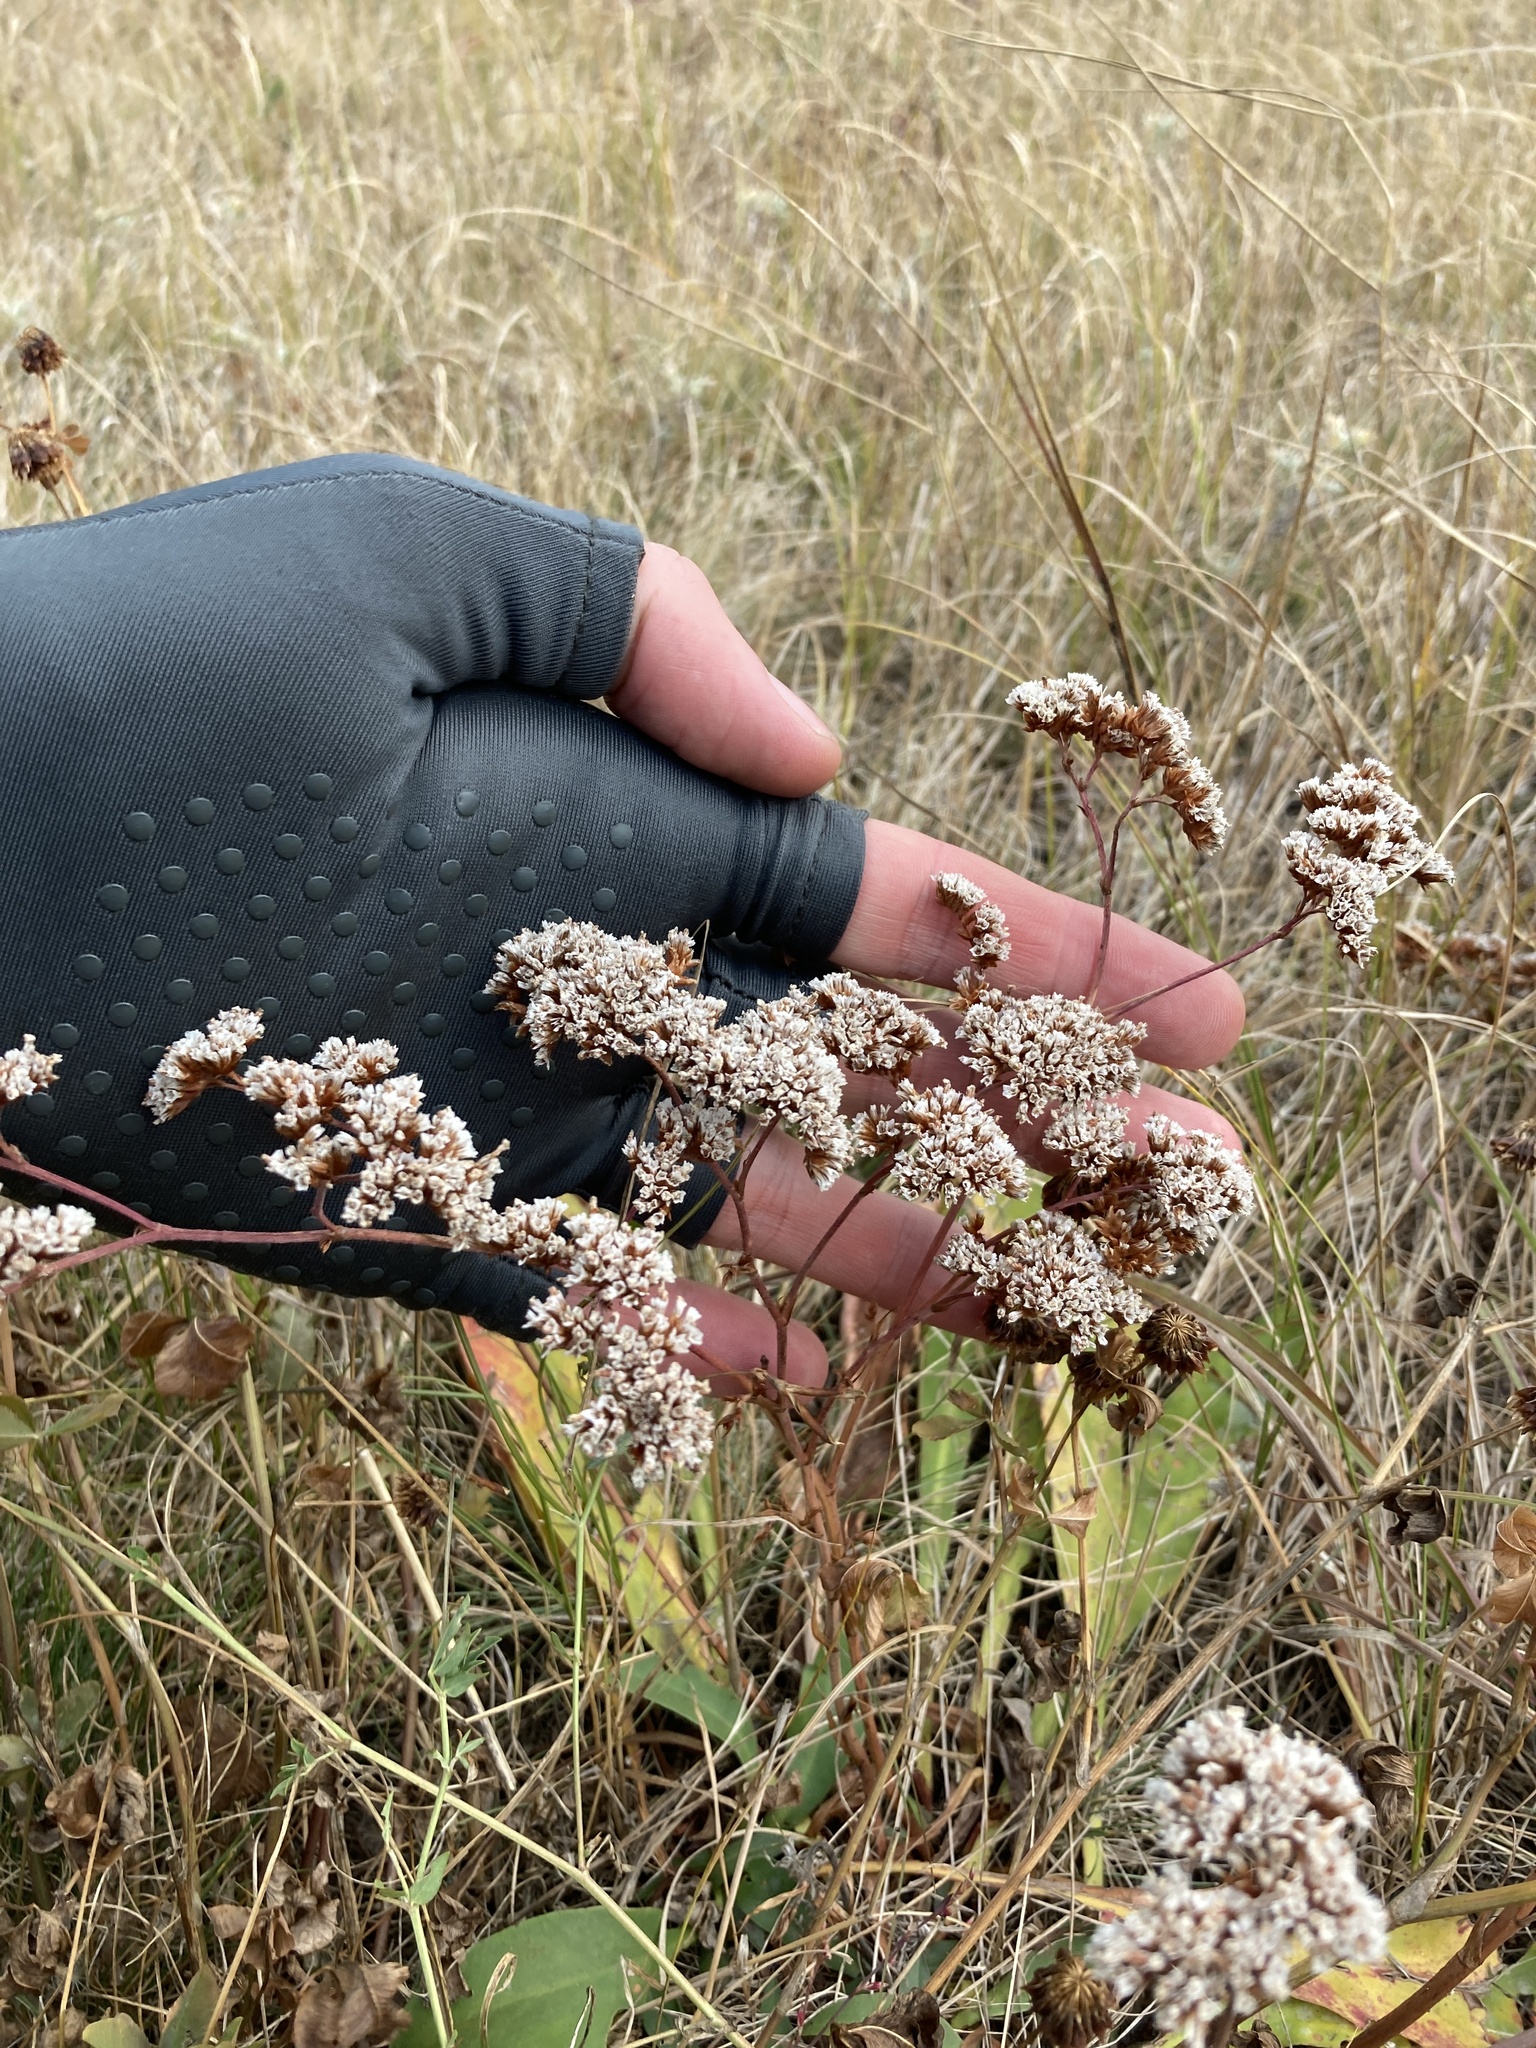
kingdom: Plantae
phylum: Tracheophyta
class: Magnoliopsida
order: Caryophyllales
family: Plumbaginaceae
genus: Goniolimon
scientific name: Goniolimon elatum
